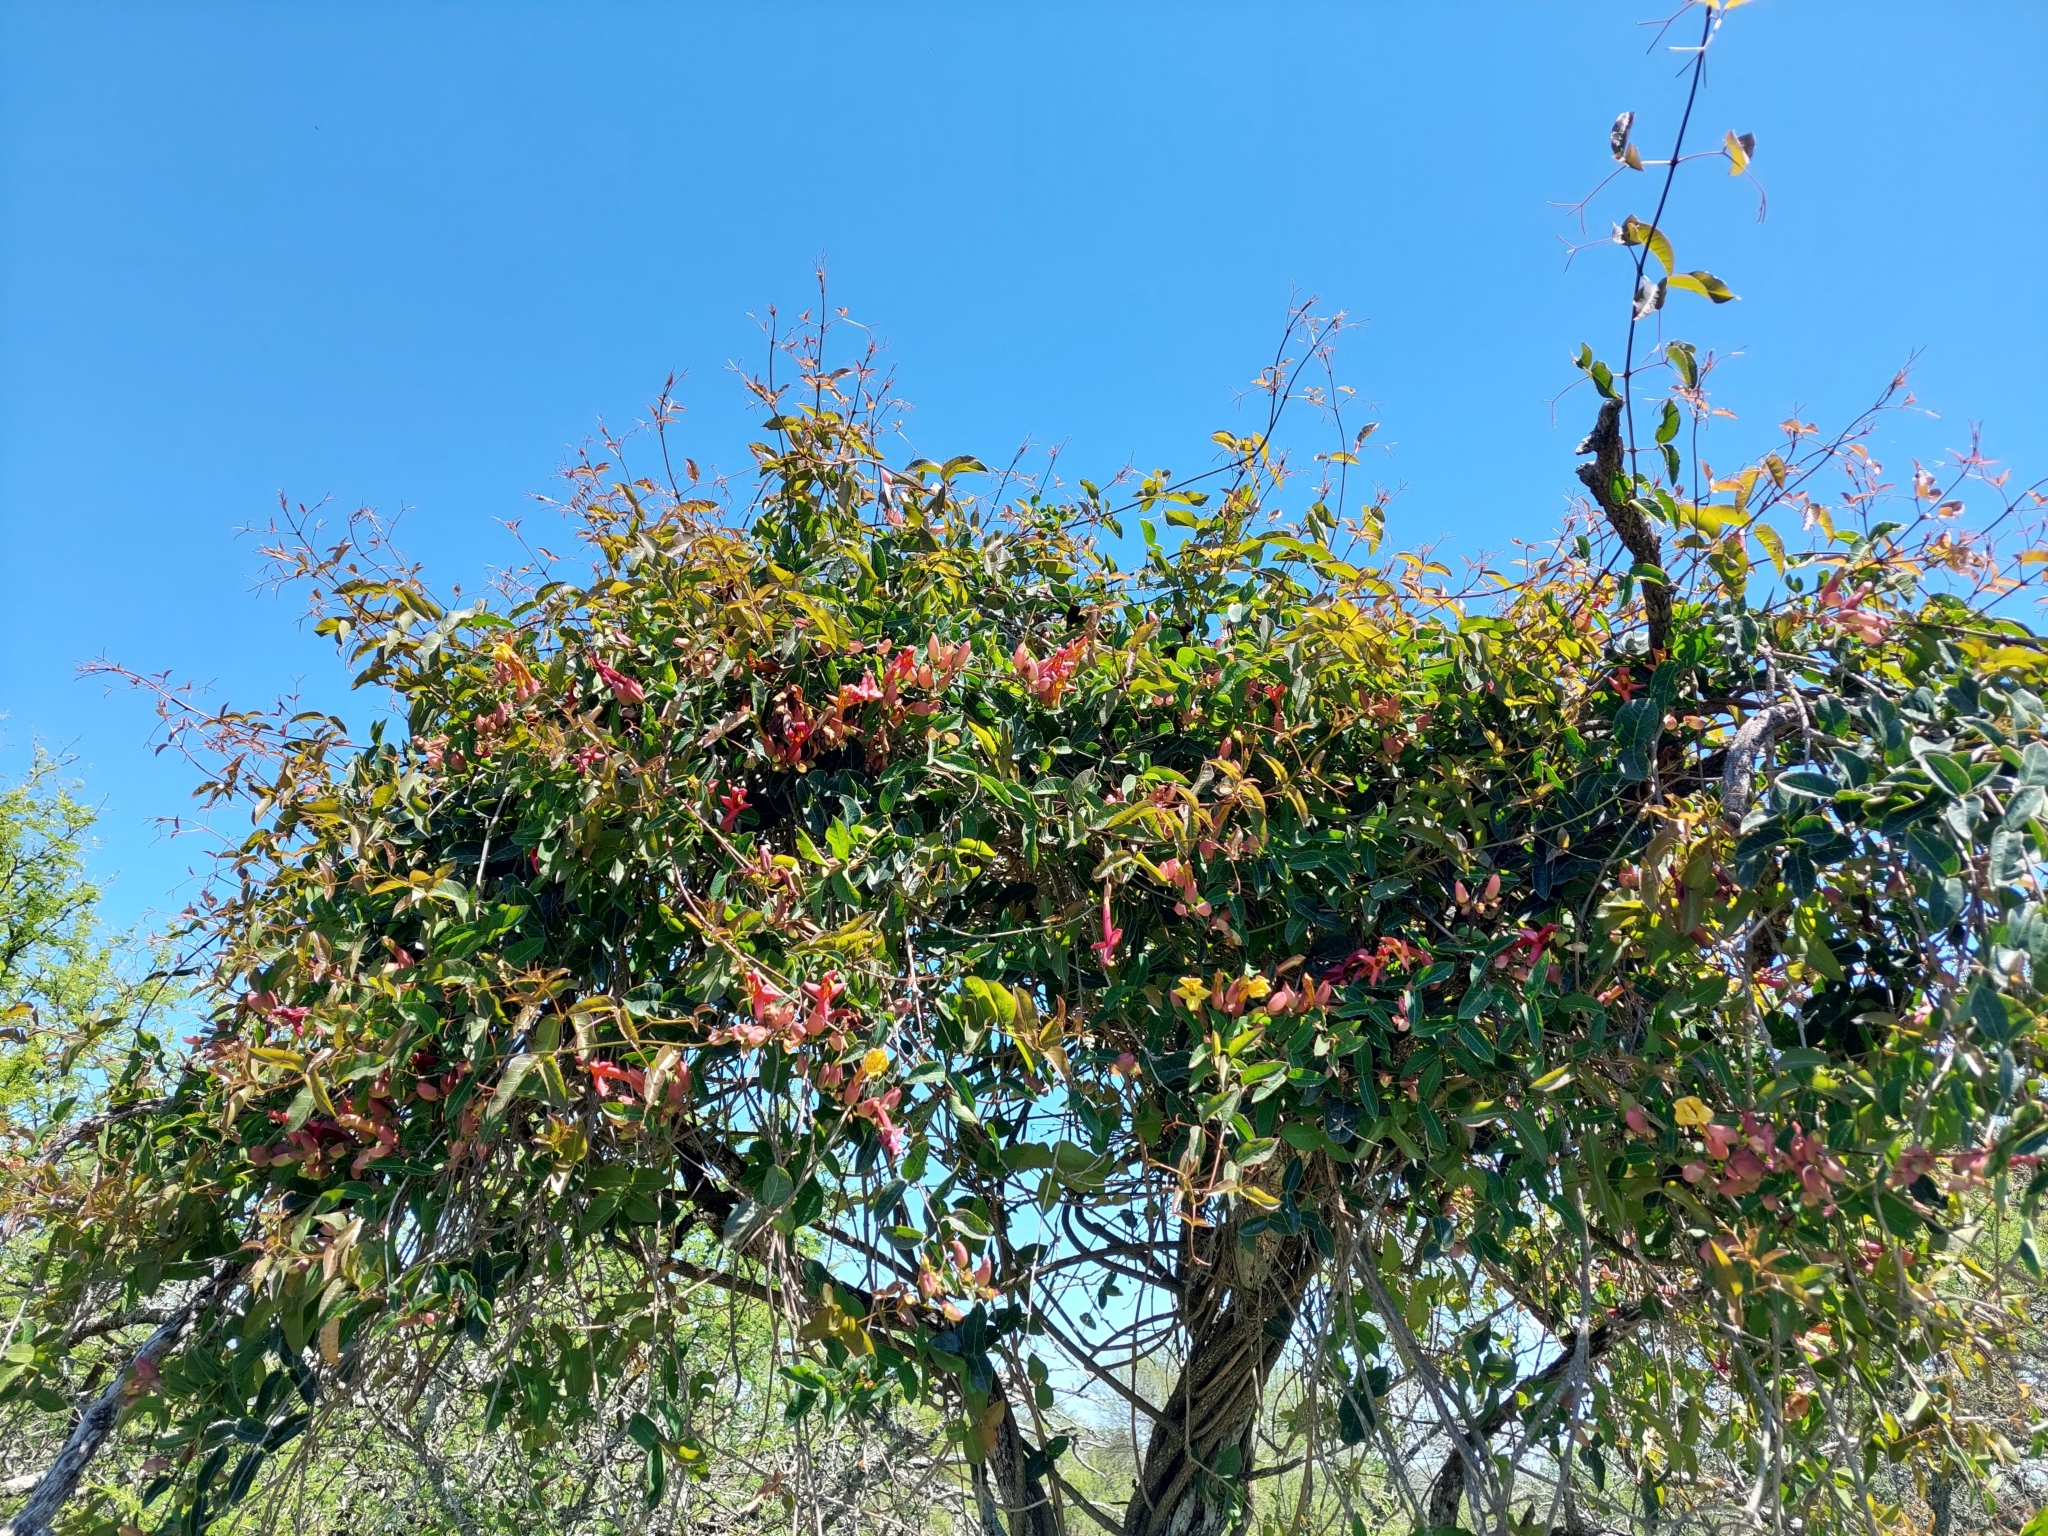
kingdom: Plantae
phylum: Tracheophyta
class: Magnoliopsida
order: Lamiales
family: Bignoniaceae
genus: Dolichandra
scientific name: Dolichandra cynanchoides
